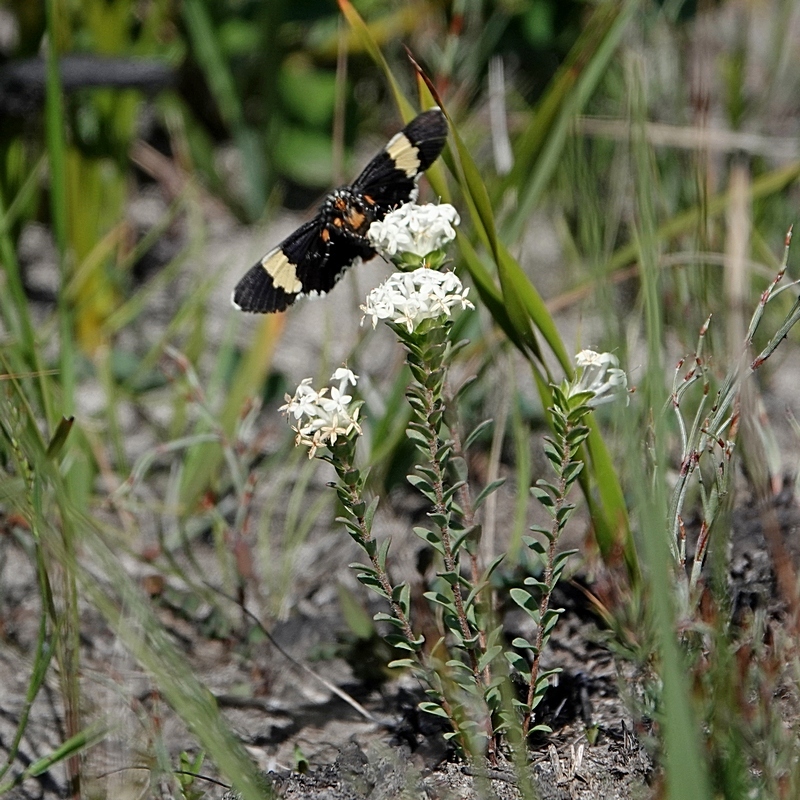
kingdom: Animalia
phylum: Arthropoda
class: Insecta
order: Lepidoptera
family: Noctuidae
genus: Eutrichopidia
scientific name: Eutrichopidia latinus
